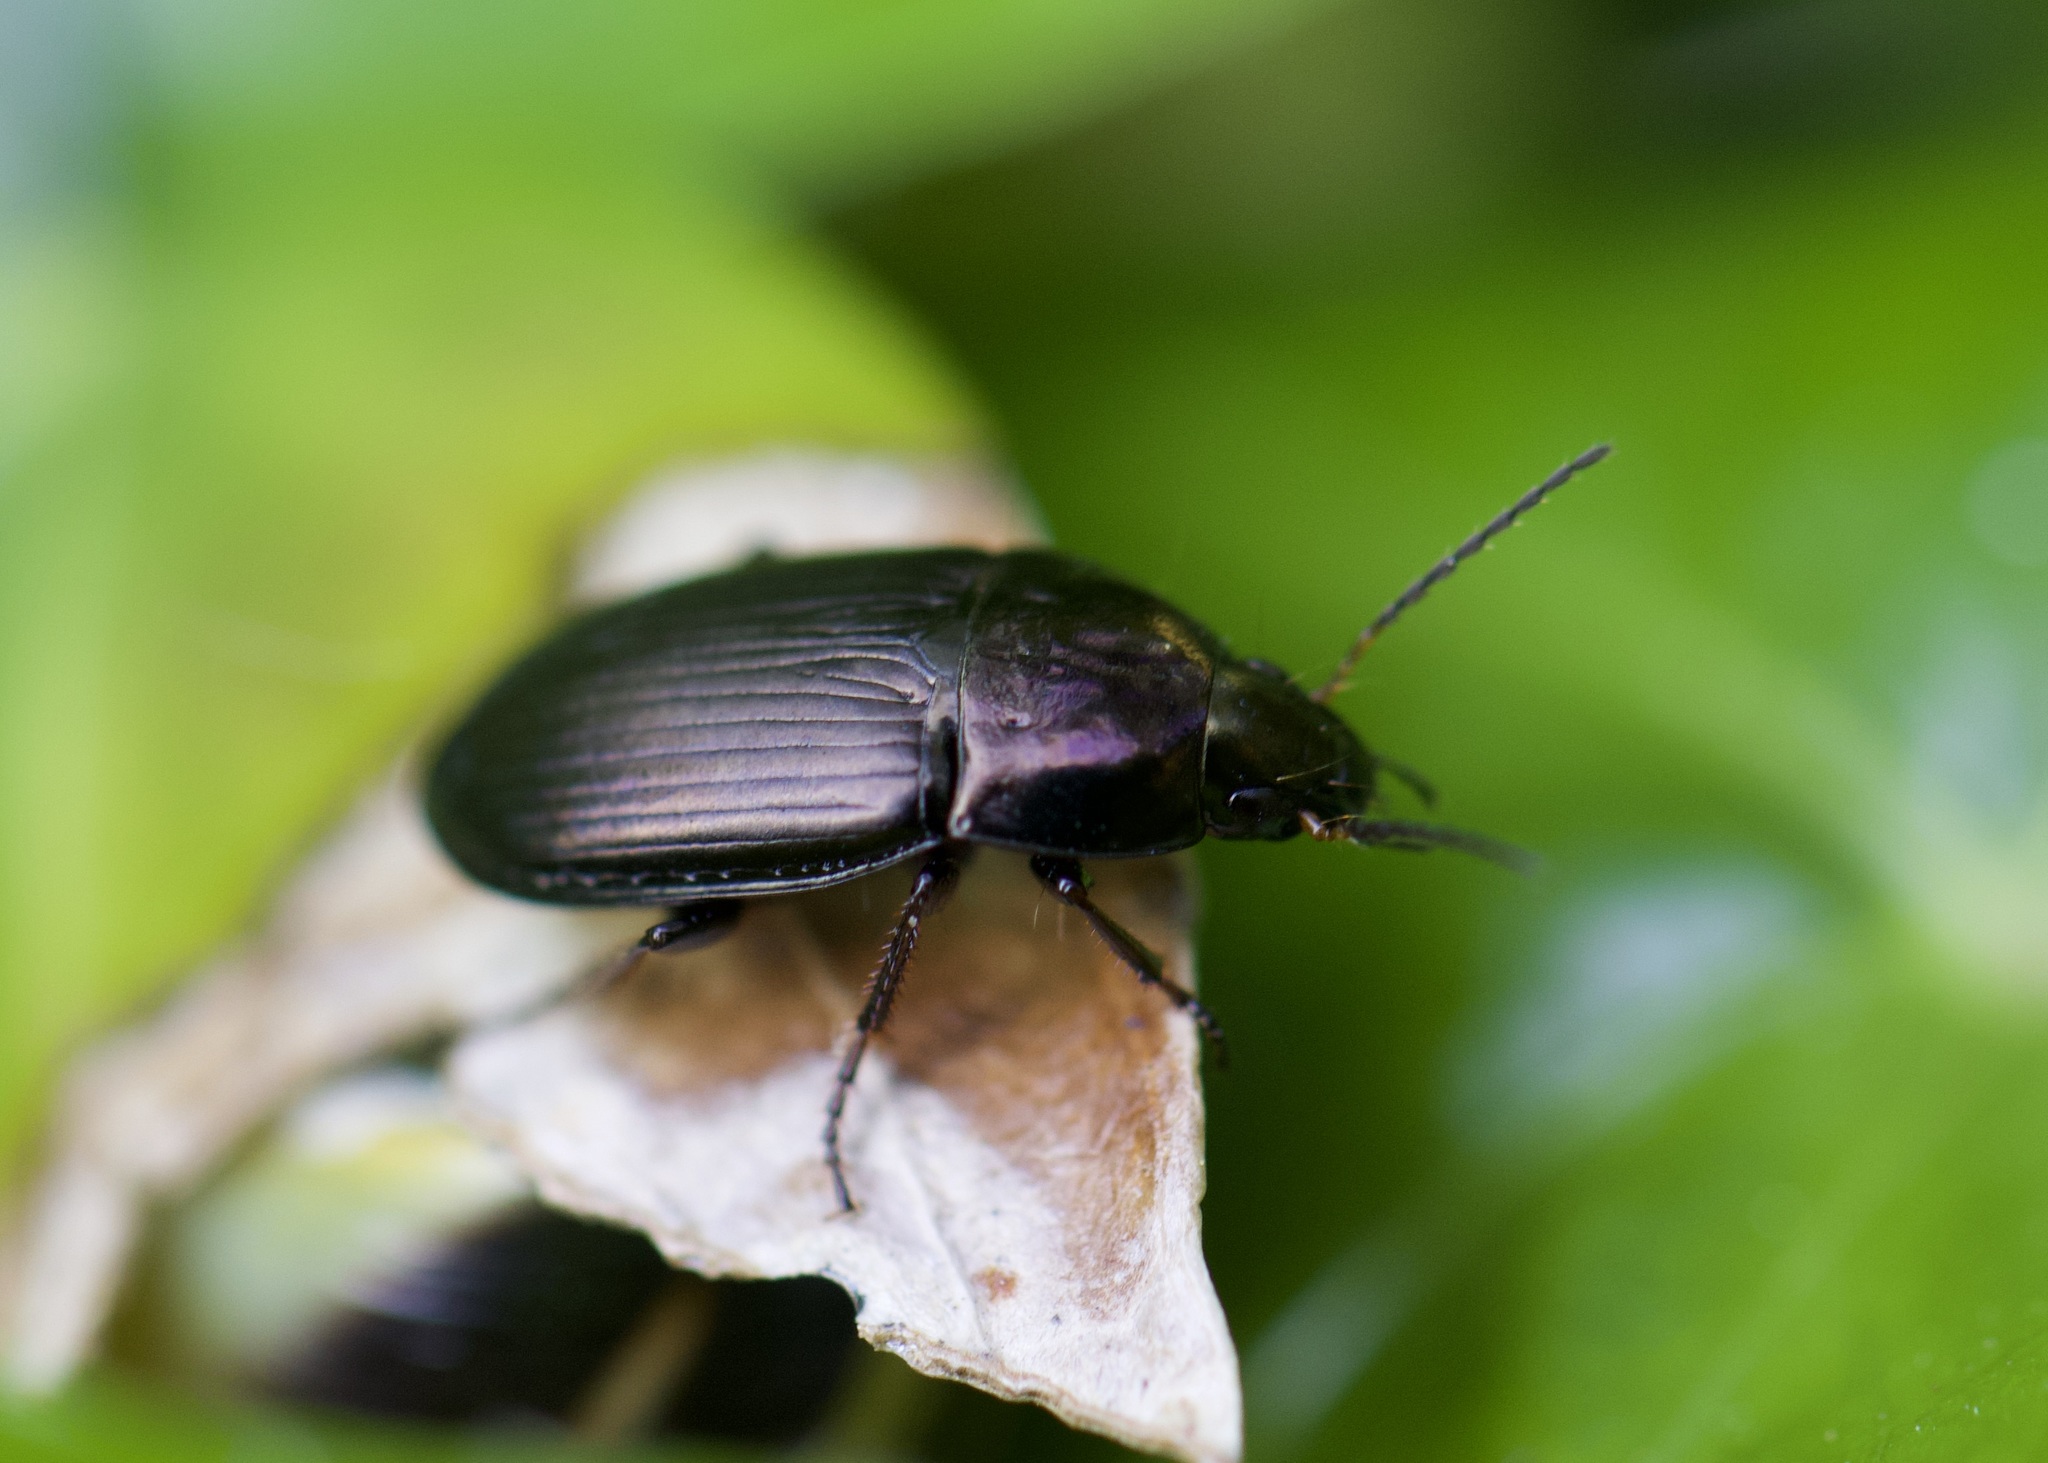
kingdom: Animalia
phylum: Arthropoda
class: Insecta
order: Coleoptera
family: Carabidae
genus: Amara
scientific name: Amara eurynota
